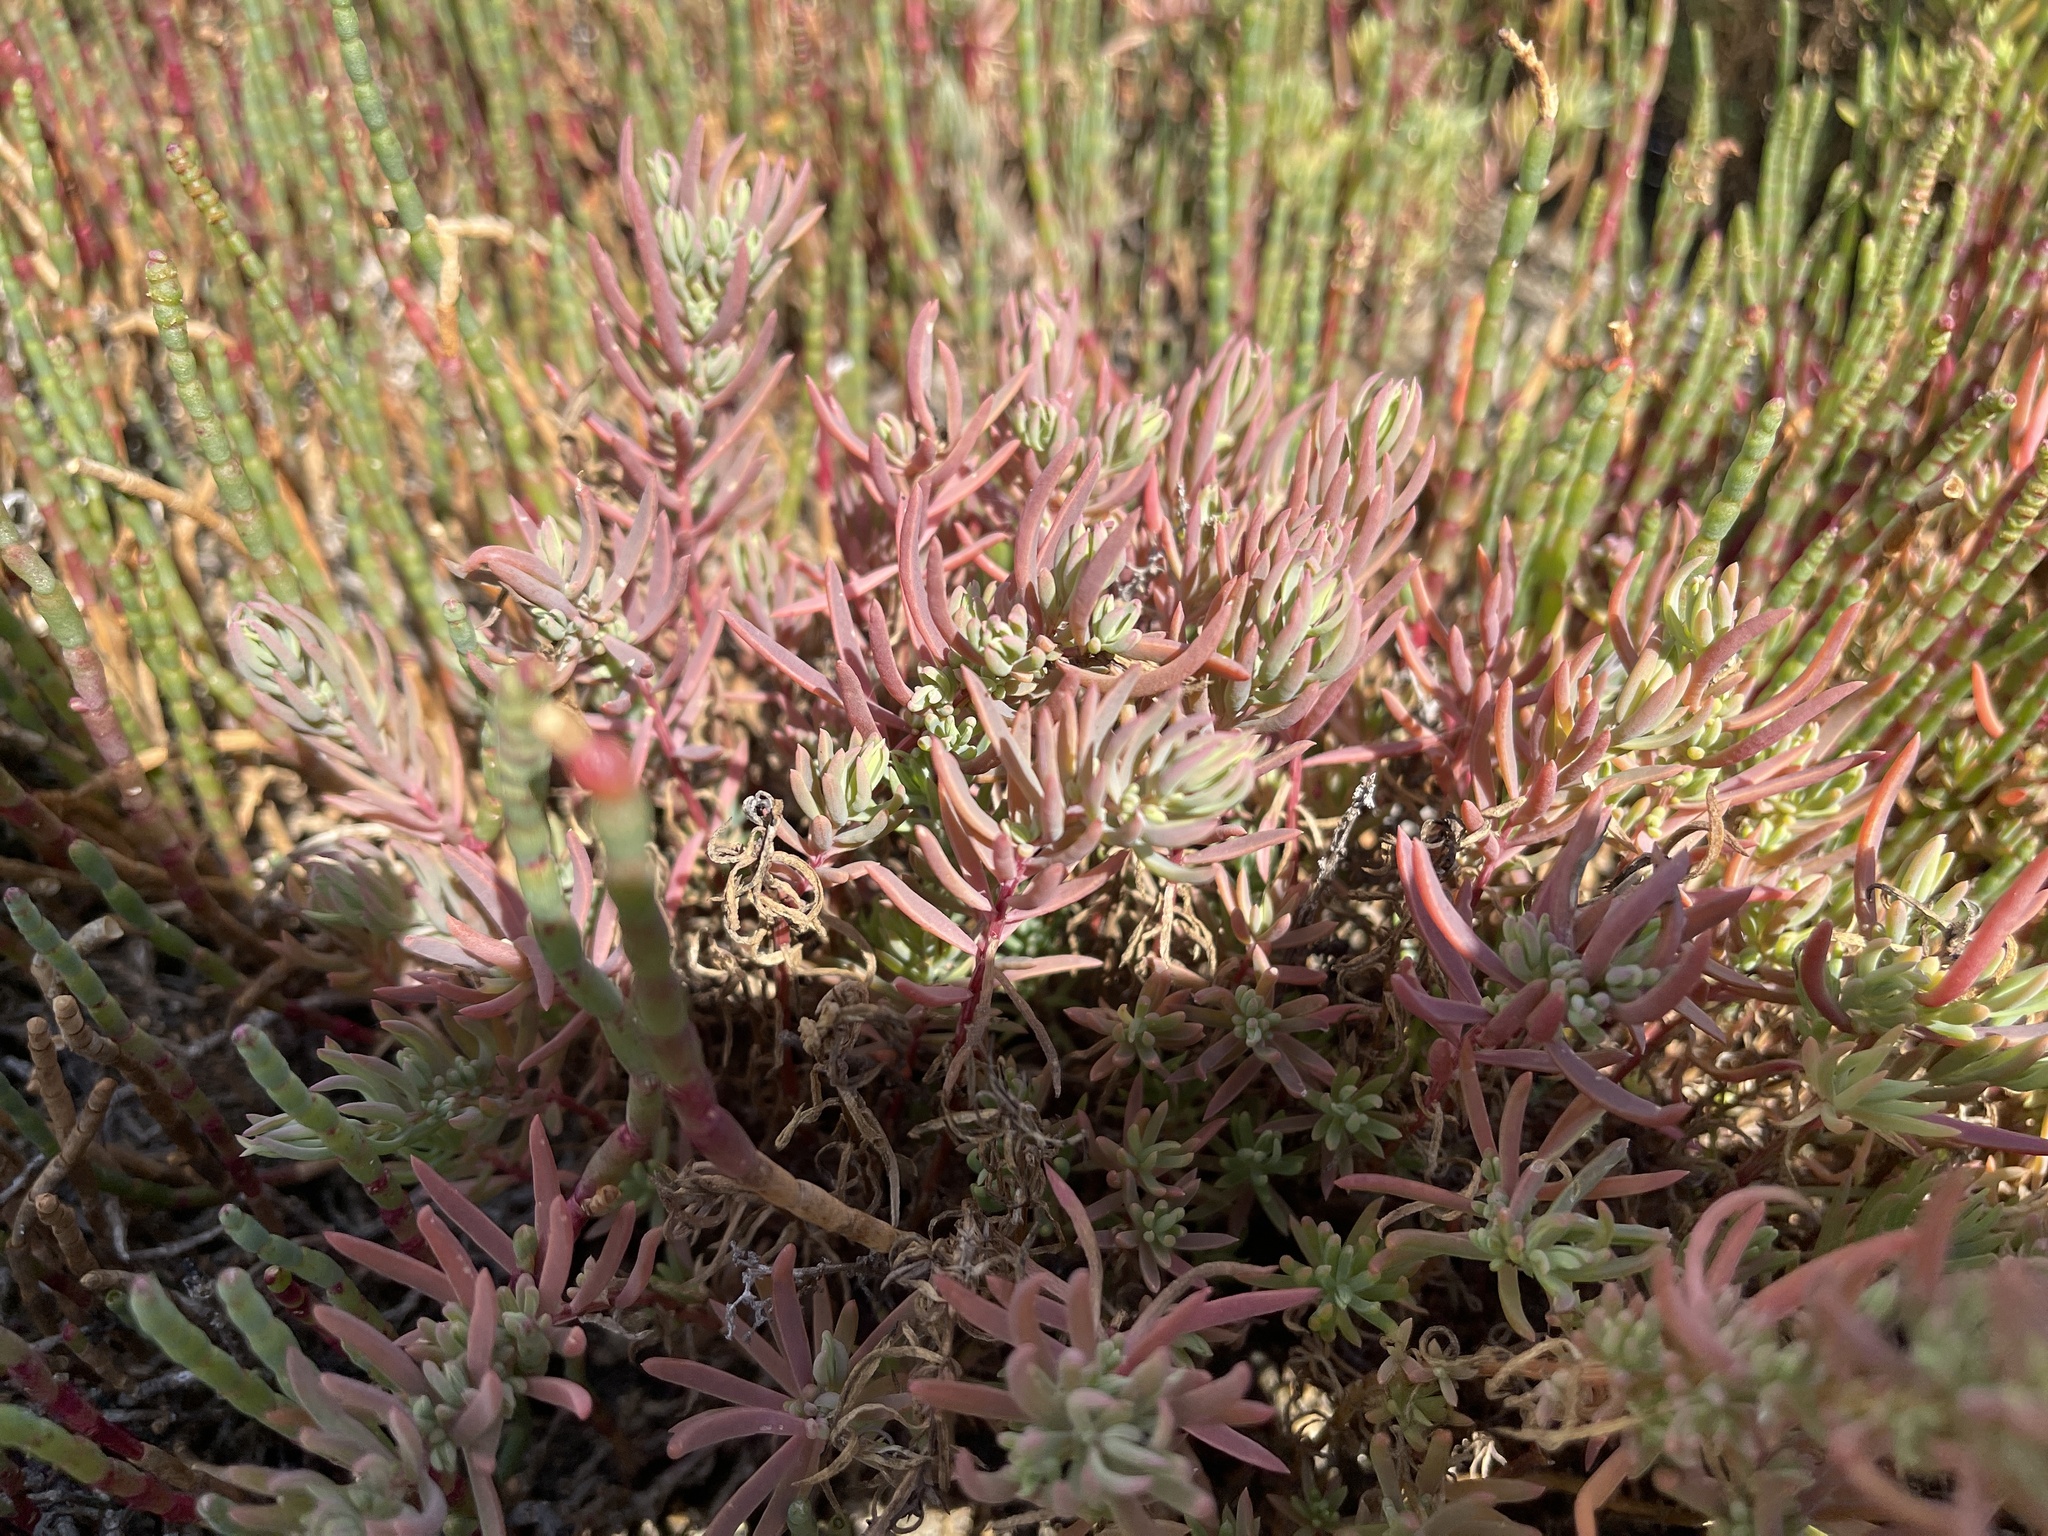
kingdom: Plantae
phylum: Tracheophyta
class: Magnoliopsida
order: Caryophyllales
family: Amaranthaceae
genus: Suaeda
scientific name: Suaeda australis
